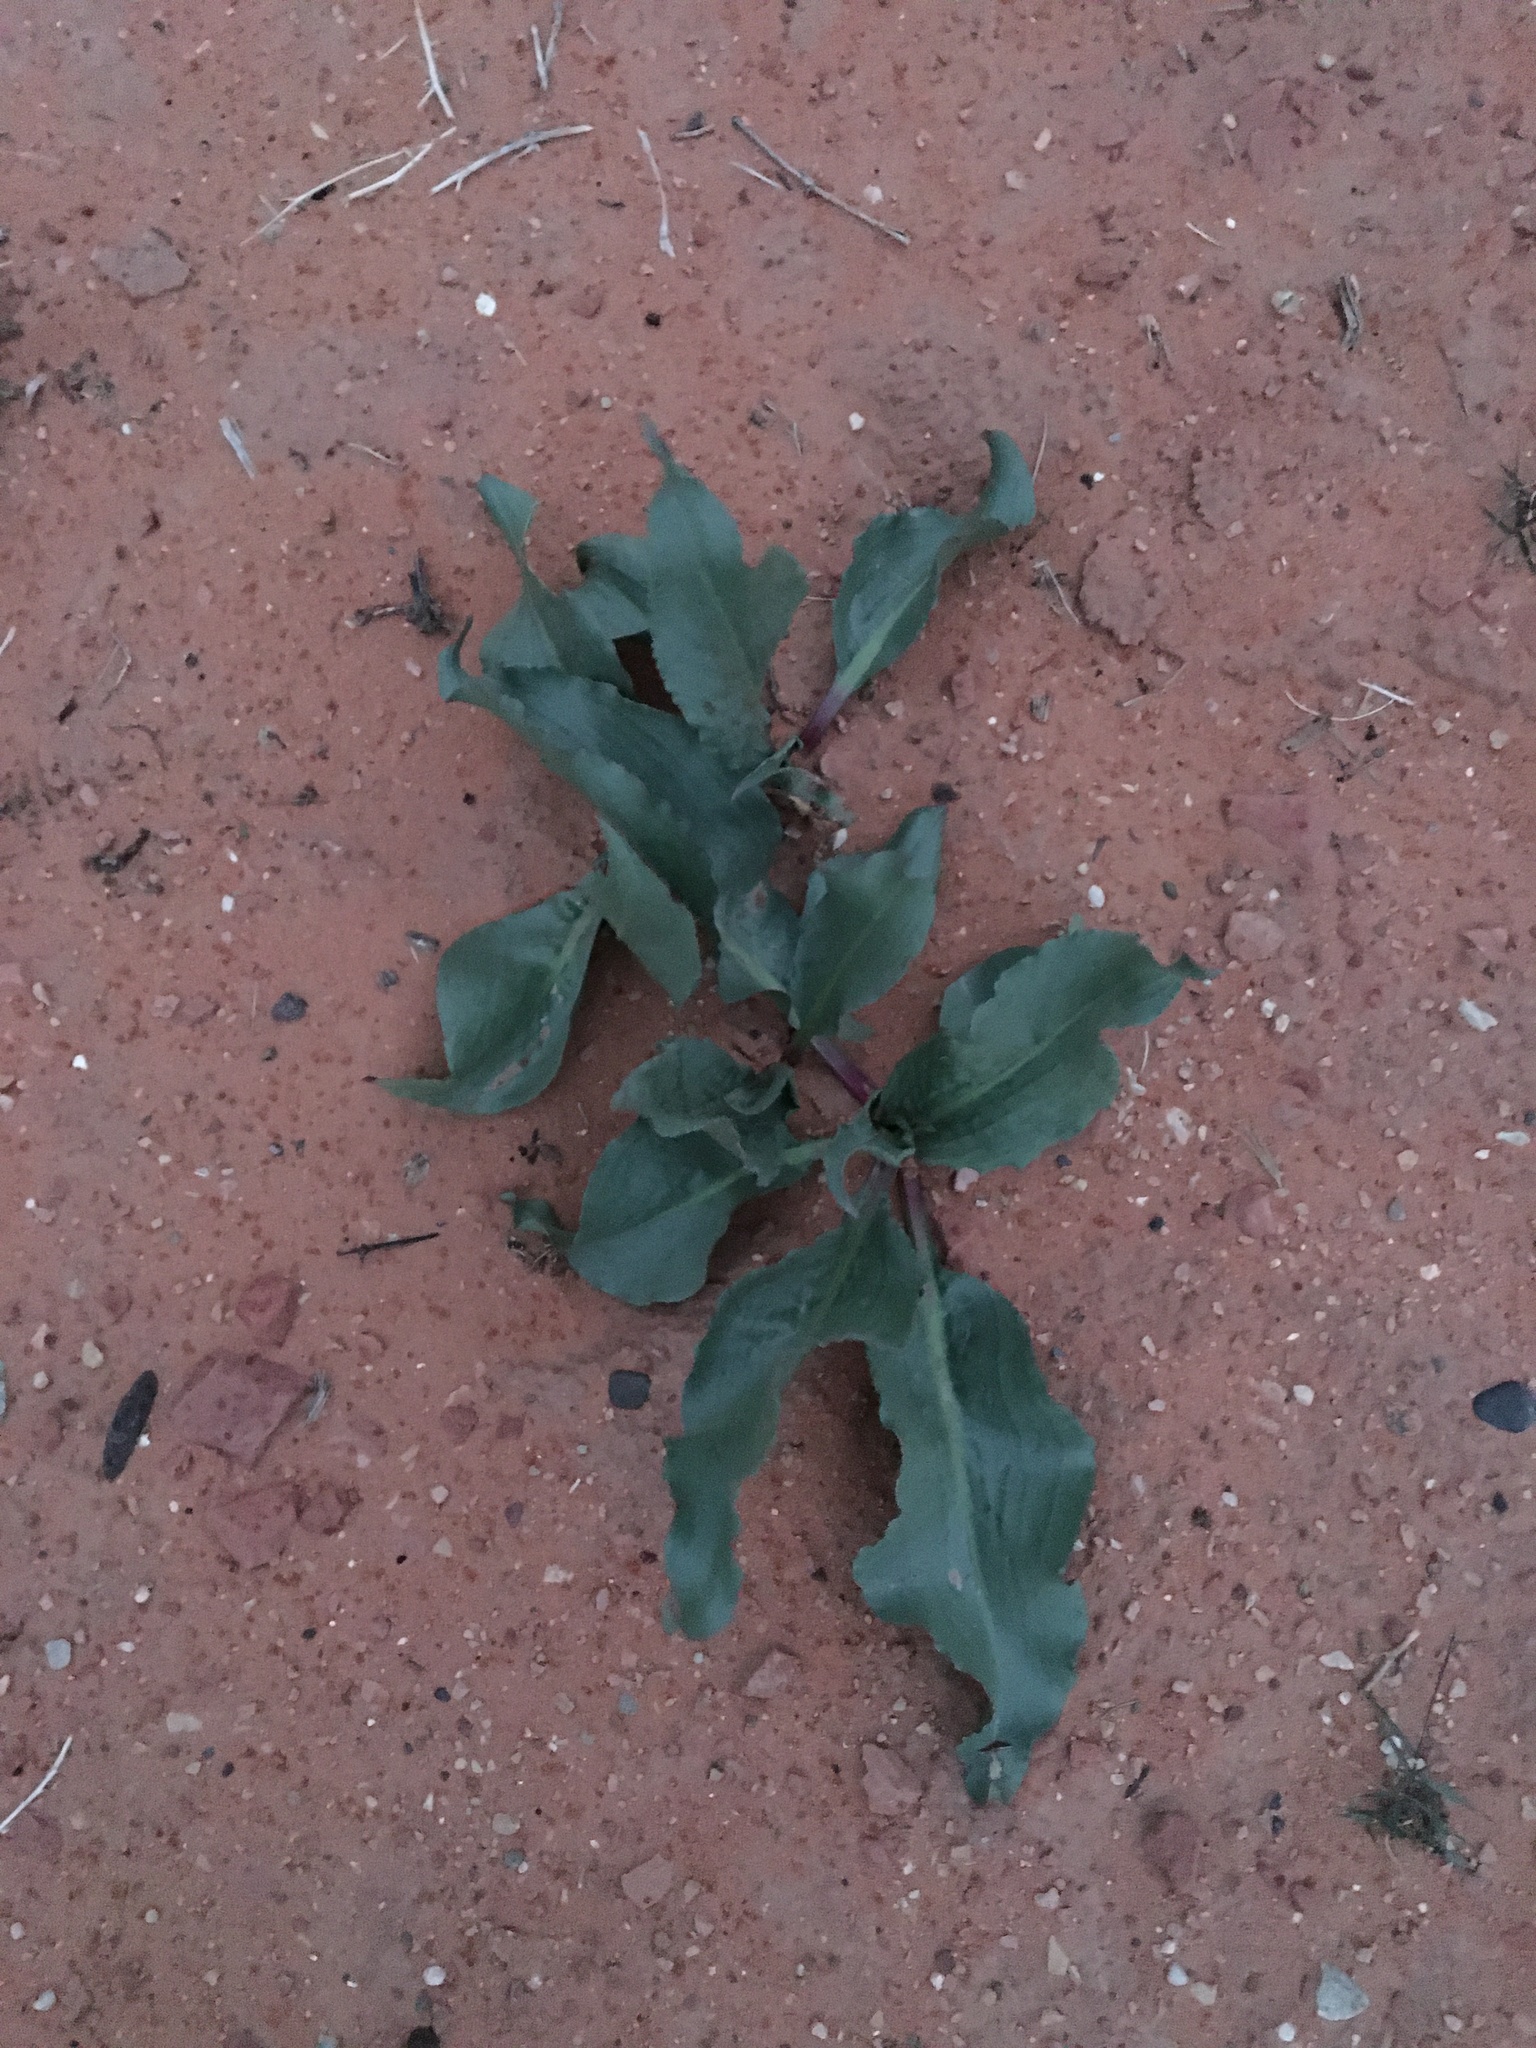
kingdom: Plantae
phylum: Tracheophyta
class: Magnoliopsida
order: Caryophyllales
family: Polygonaceae
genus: Rumex
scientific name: Rumex hymenosepalus
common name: Ganagra
